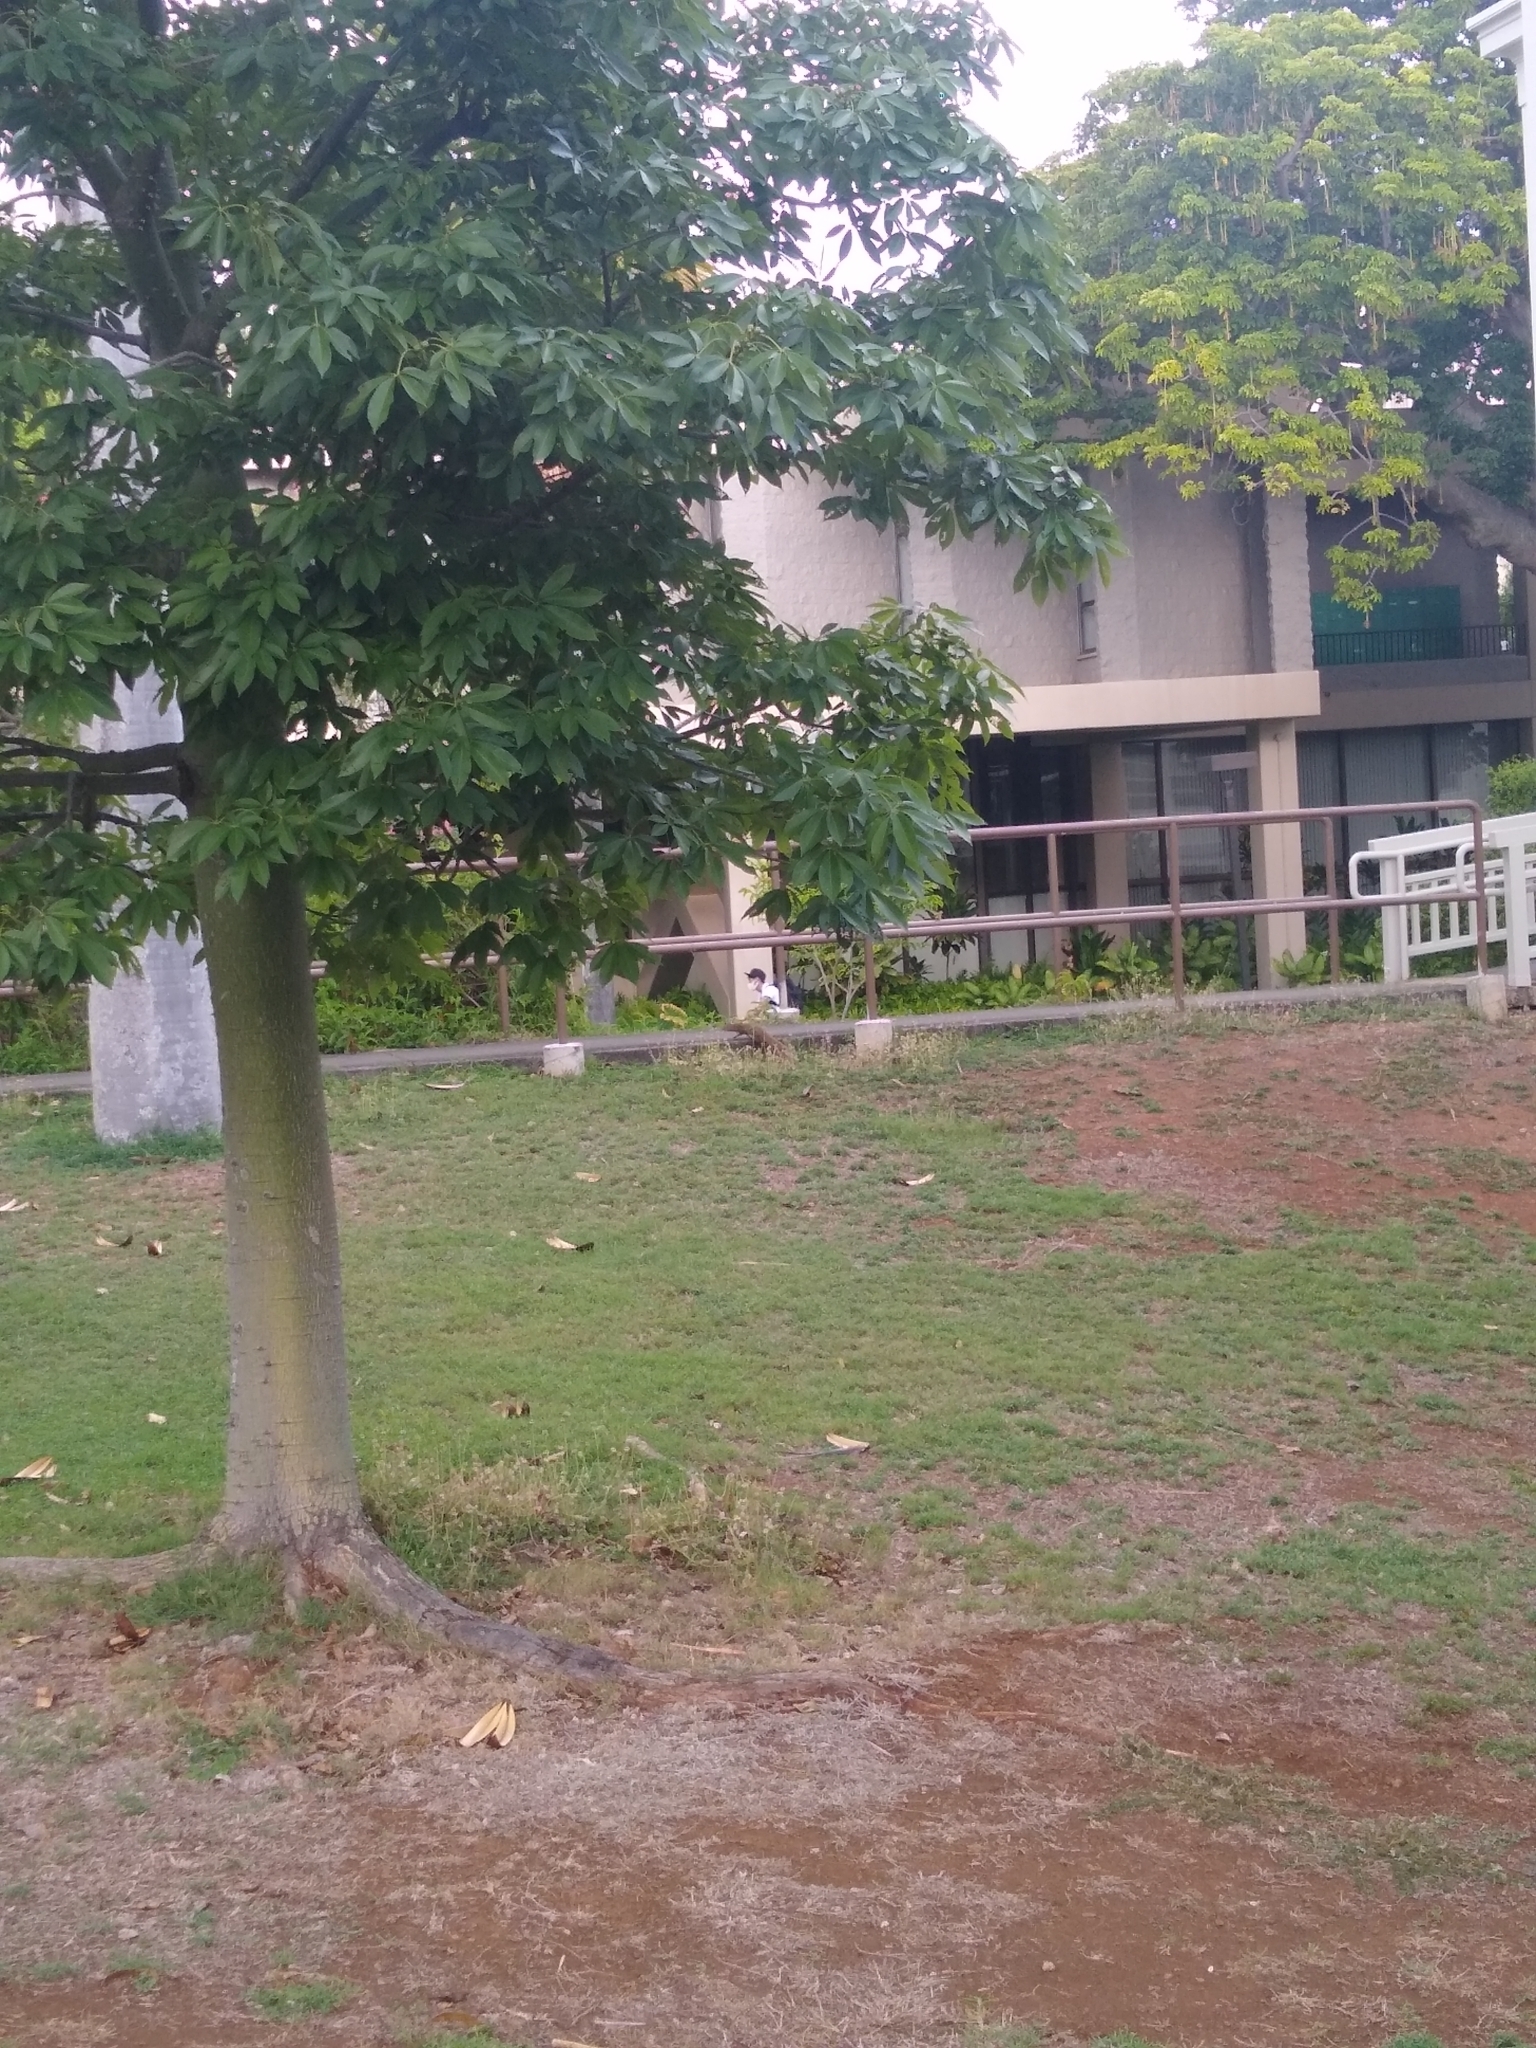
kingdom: Animalia
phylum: Chordata
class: Mammalia
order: Carnivora
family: Herpestidae
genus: Herpestes
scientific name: Herpestes javanicus
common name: Small asian mongoose
